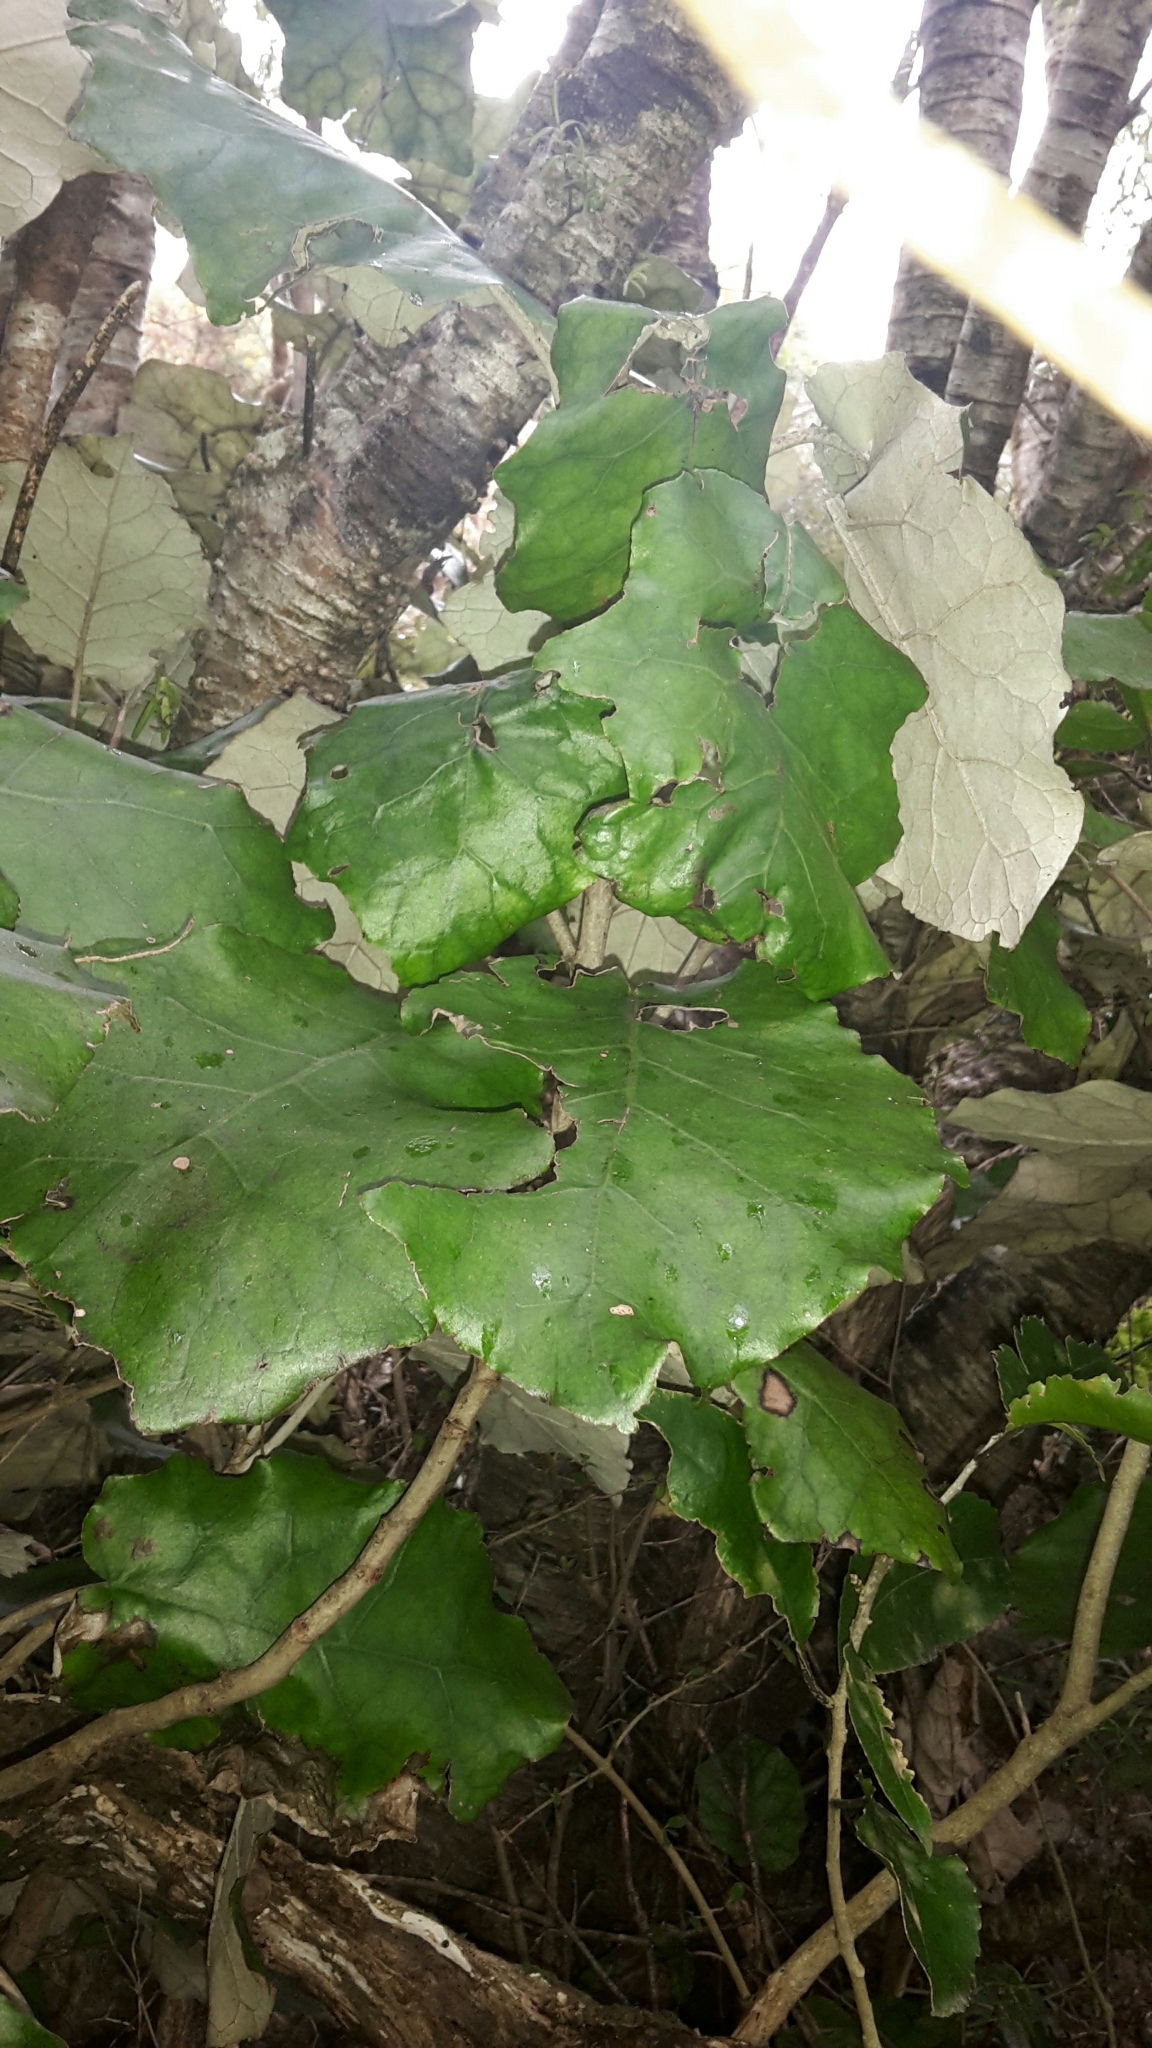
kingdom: Plantae
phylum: Tracheophyta
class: Magnoliopsida
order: Asterales
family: Asteraceae
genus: Brachyglottis
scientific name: Brachyglottis repanda
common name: Hedge ragwort
